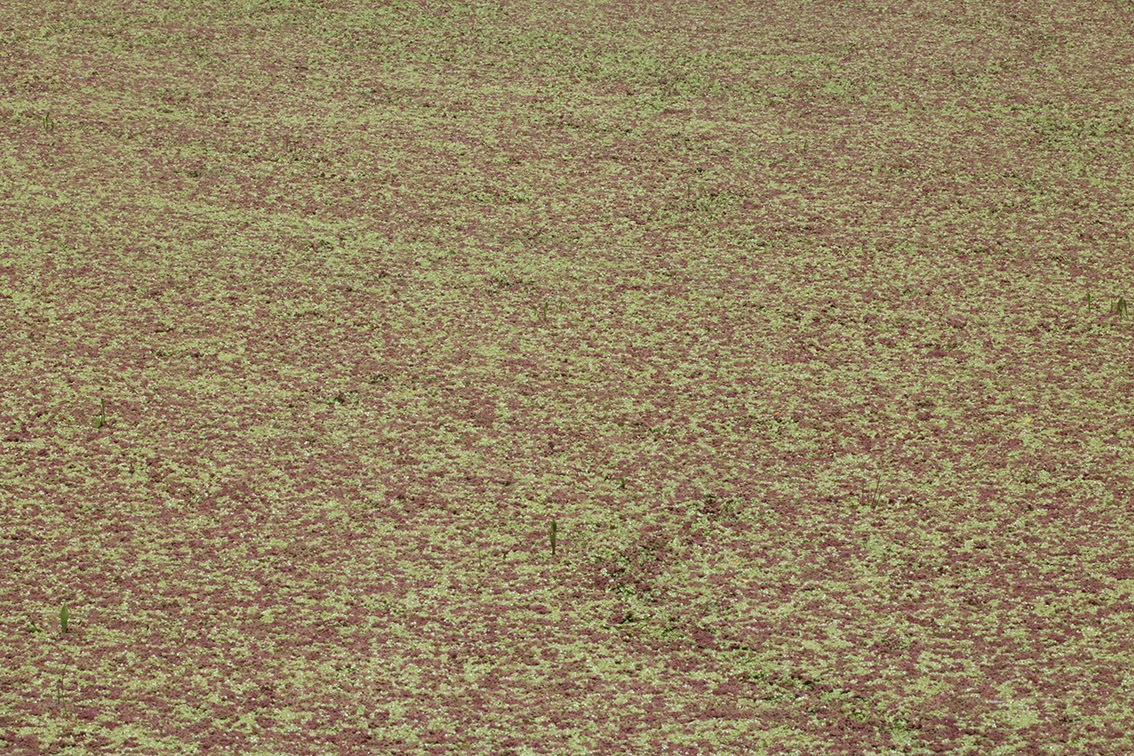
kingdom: Plantae
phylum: Tracheophyta
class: Polypodiopsida
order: Salviniales
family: Salviniaceae
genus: Azolla
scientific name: Azolla filiculoides
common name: Water fern
